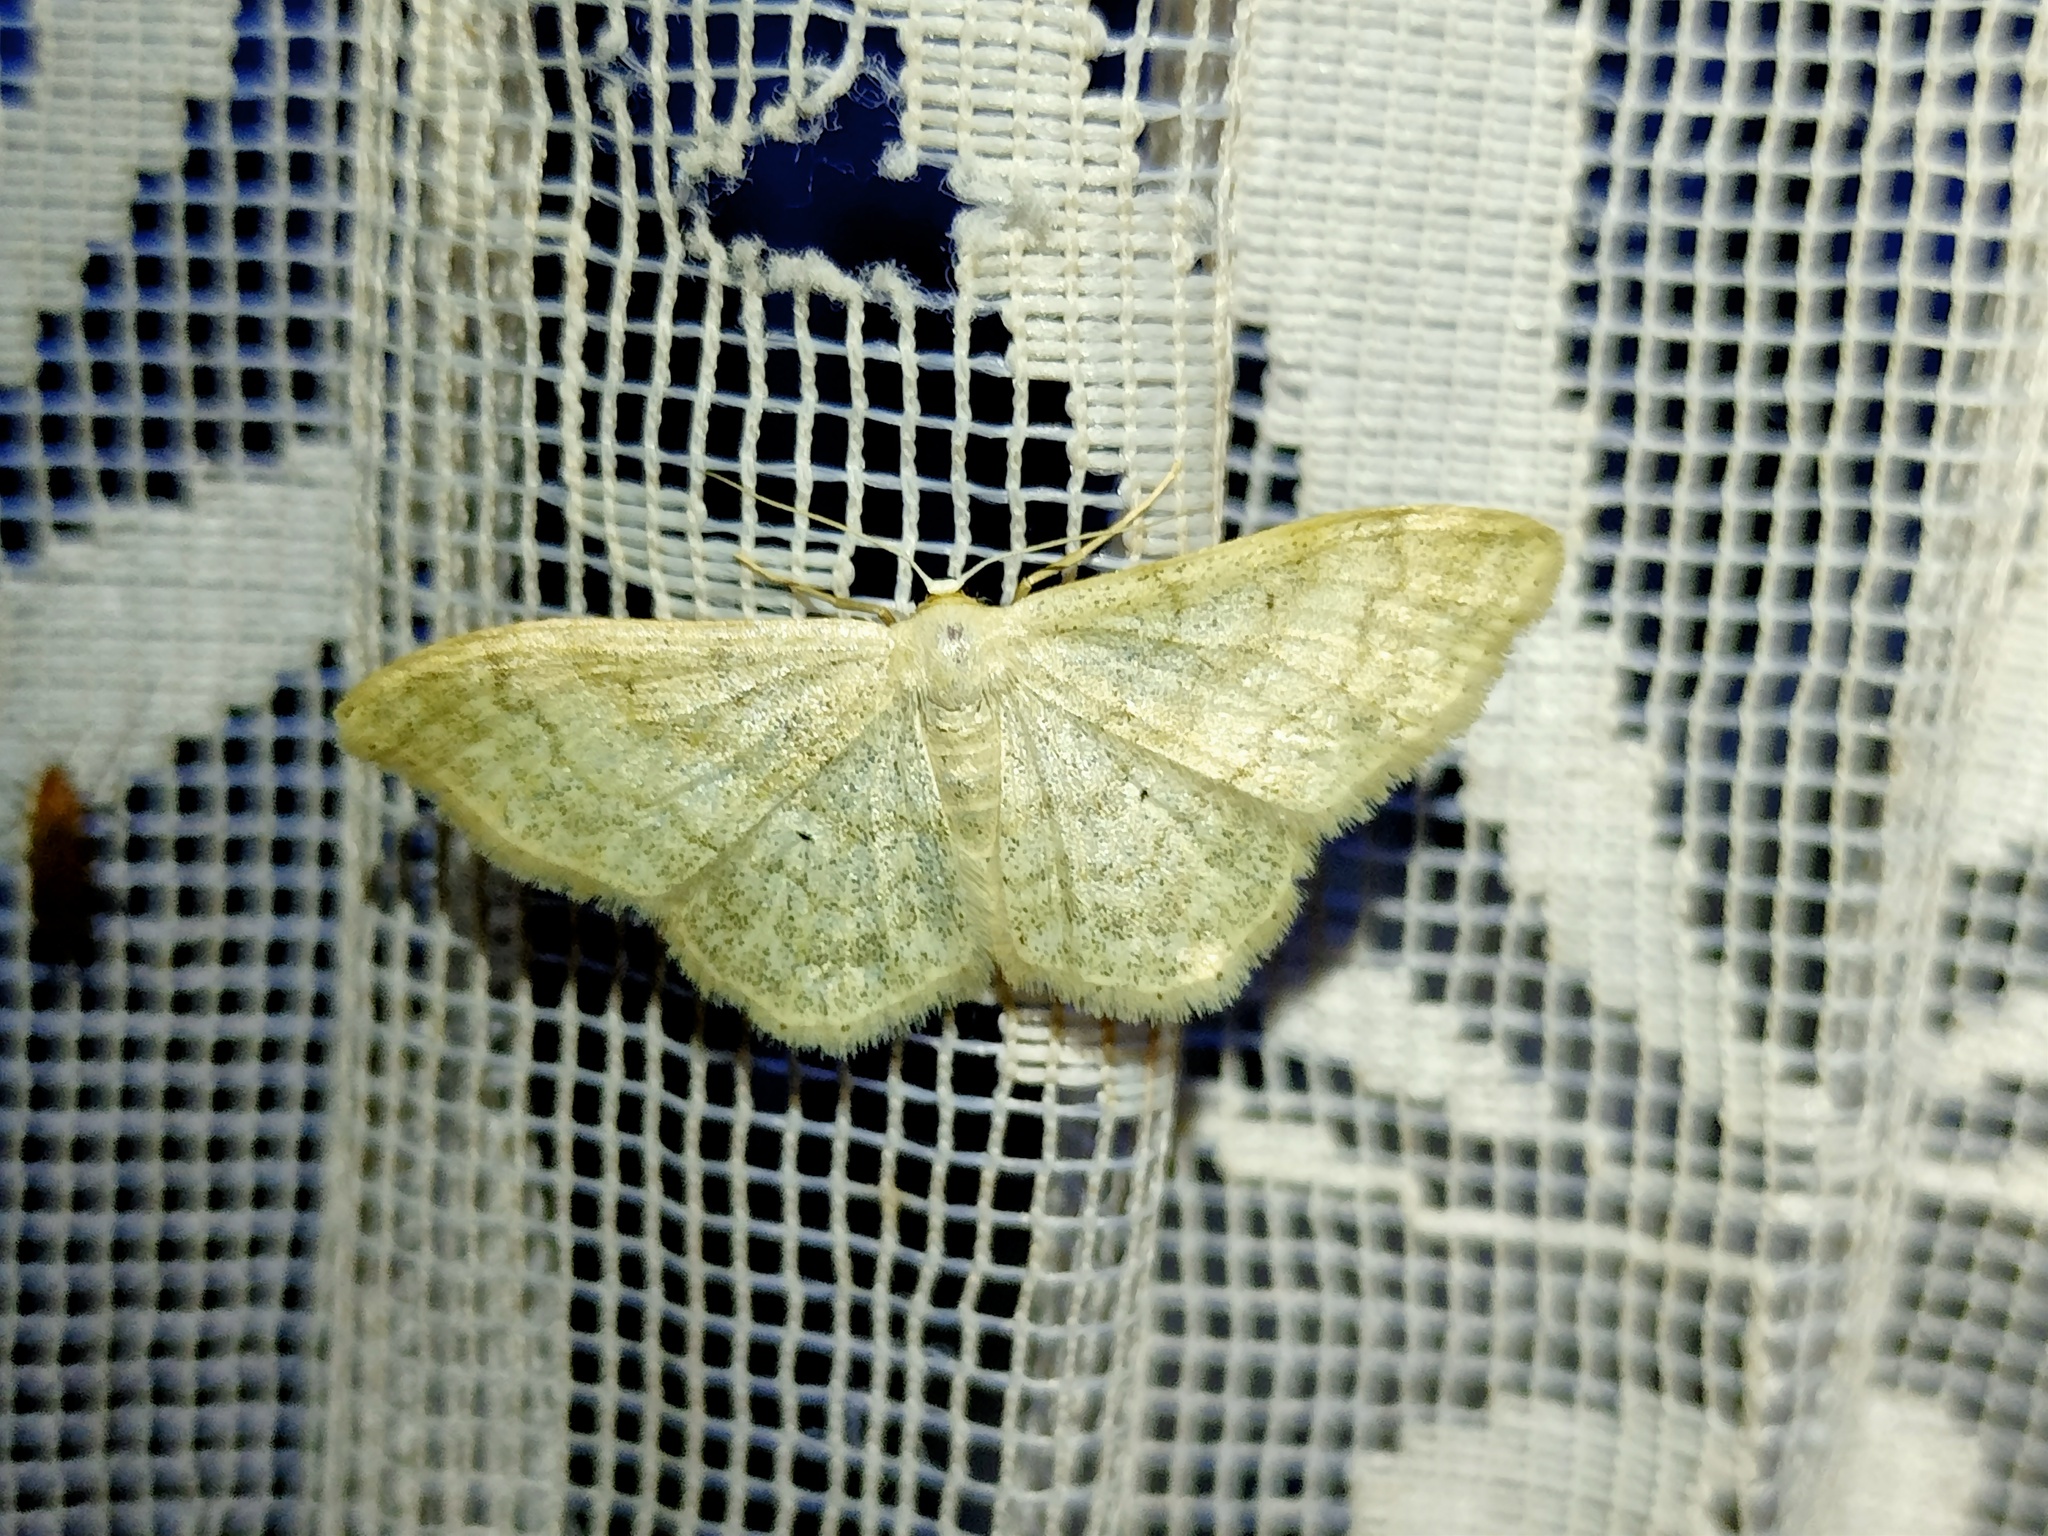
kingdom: Animalia
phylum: Arthropoda
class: Insecta
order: Lepidoptera
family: Geometridae
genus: Idaea
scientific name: Idaea maritimaria
